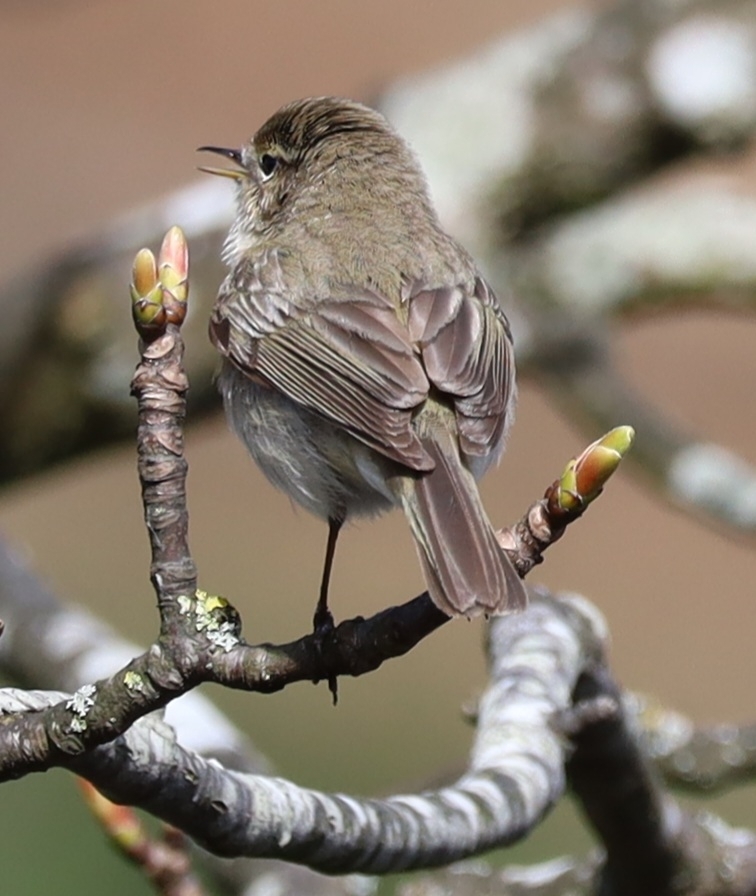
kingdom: Animalia
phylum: Chordata
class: Aves
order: Passeriformes
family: Phylloscopidae
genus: Phylloscopus
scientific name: Phylloscopus collybita
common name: Common chiffchaff
